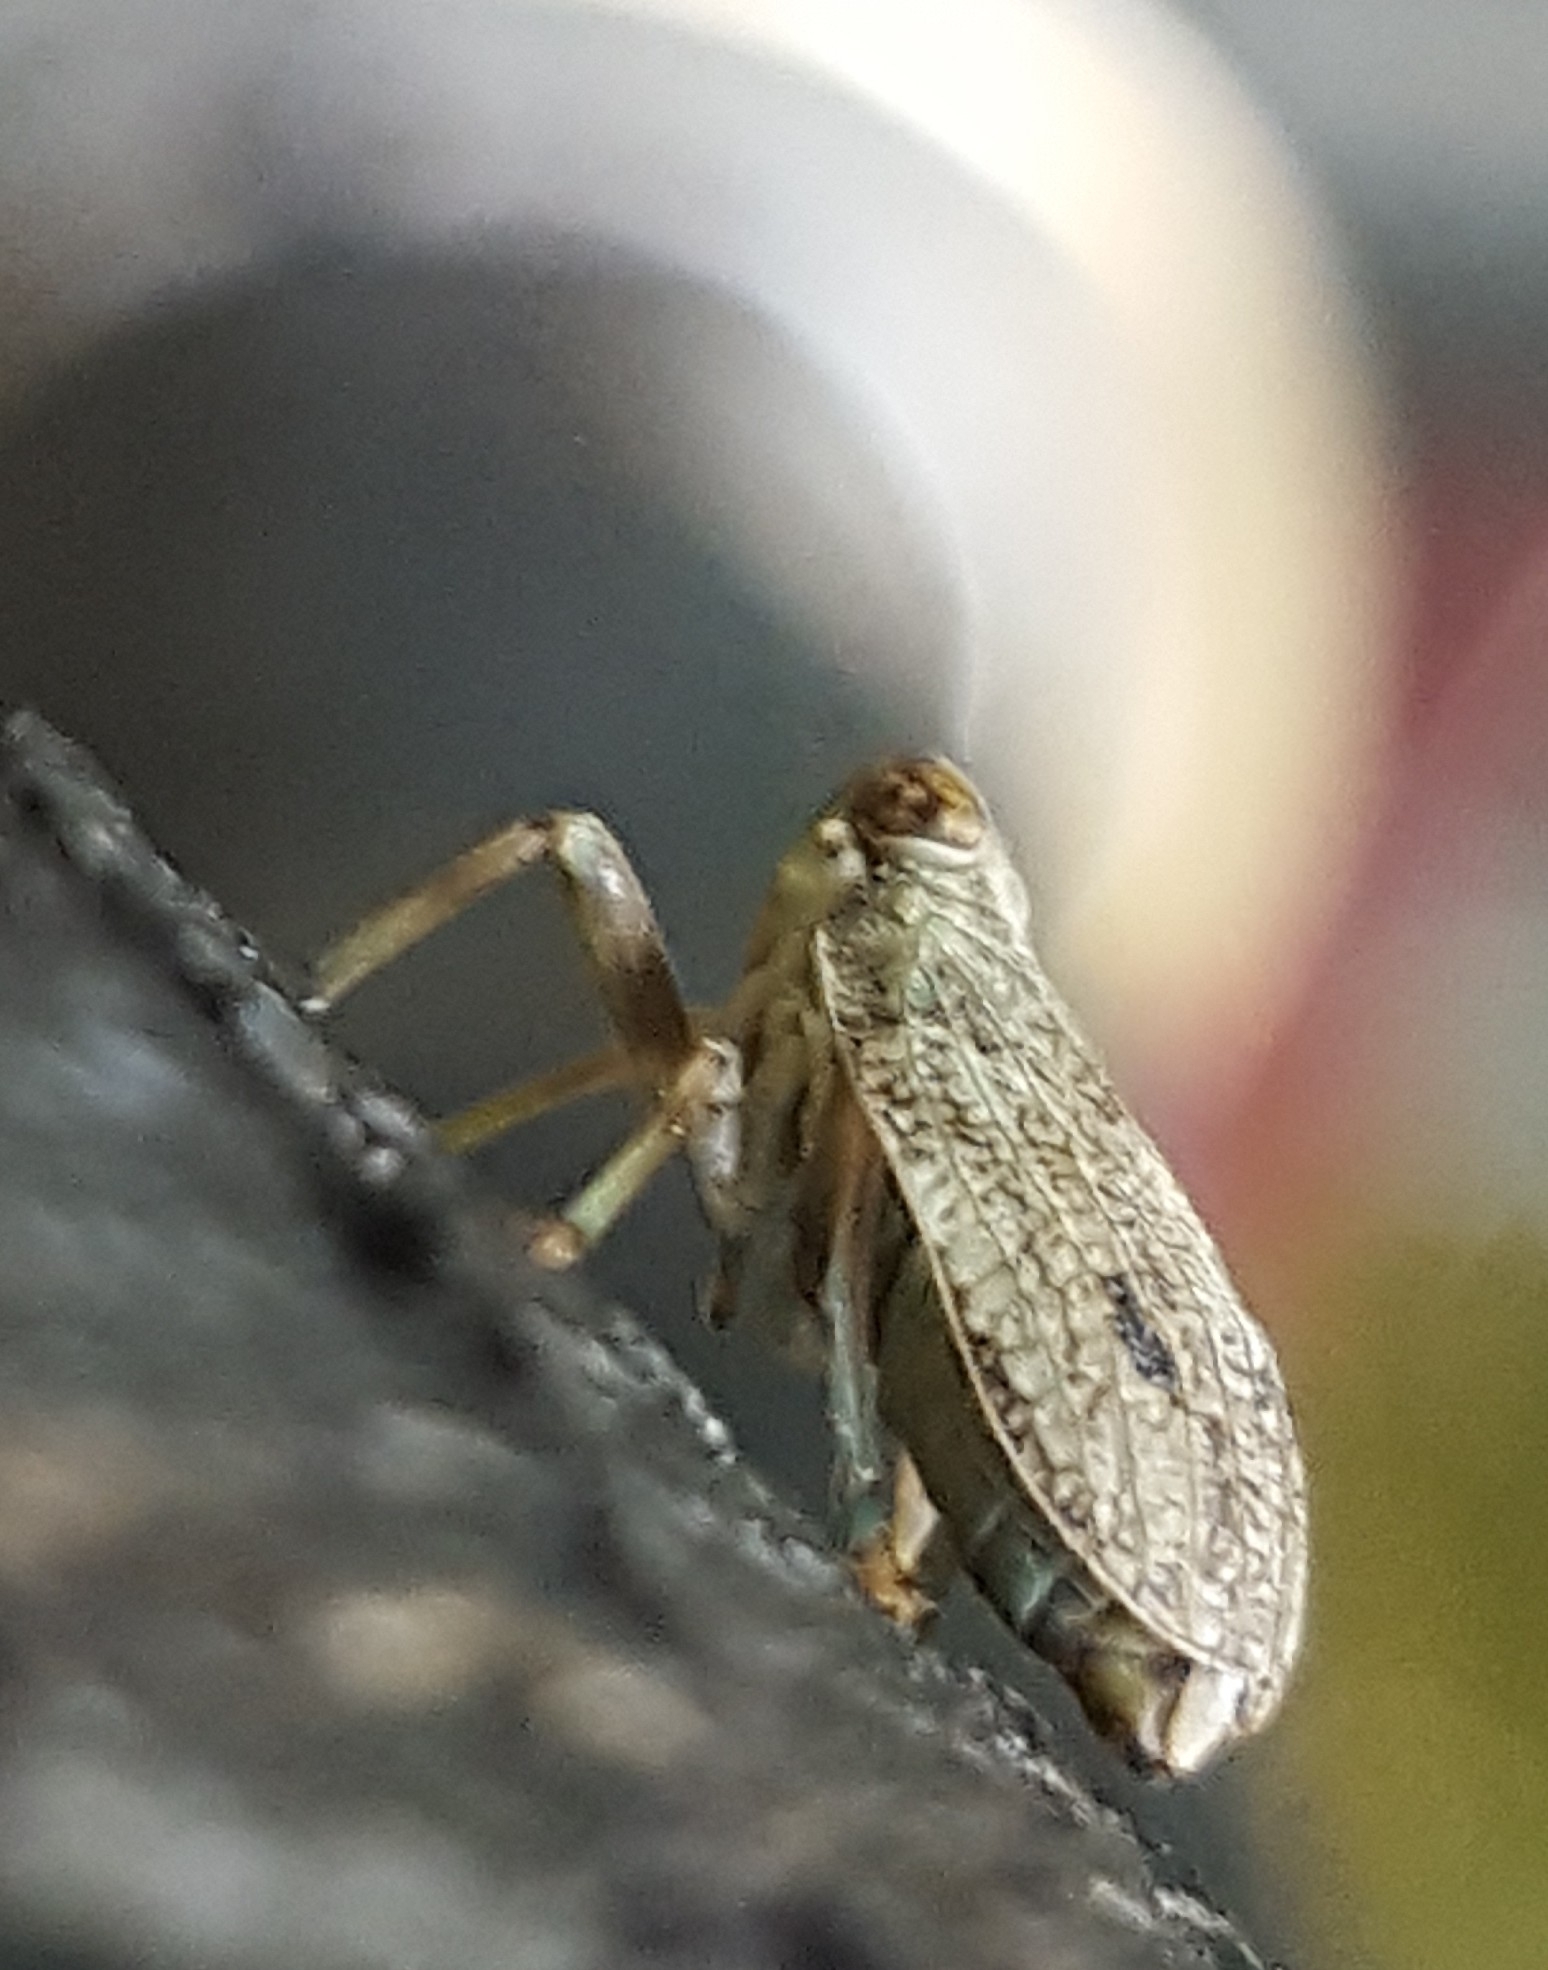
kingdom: Animalia
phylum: Arthropoda
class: Insecta
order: Hemiptera
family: Issidae
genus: Issus
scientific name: Issus coleoptratus
